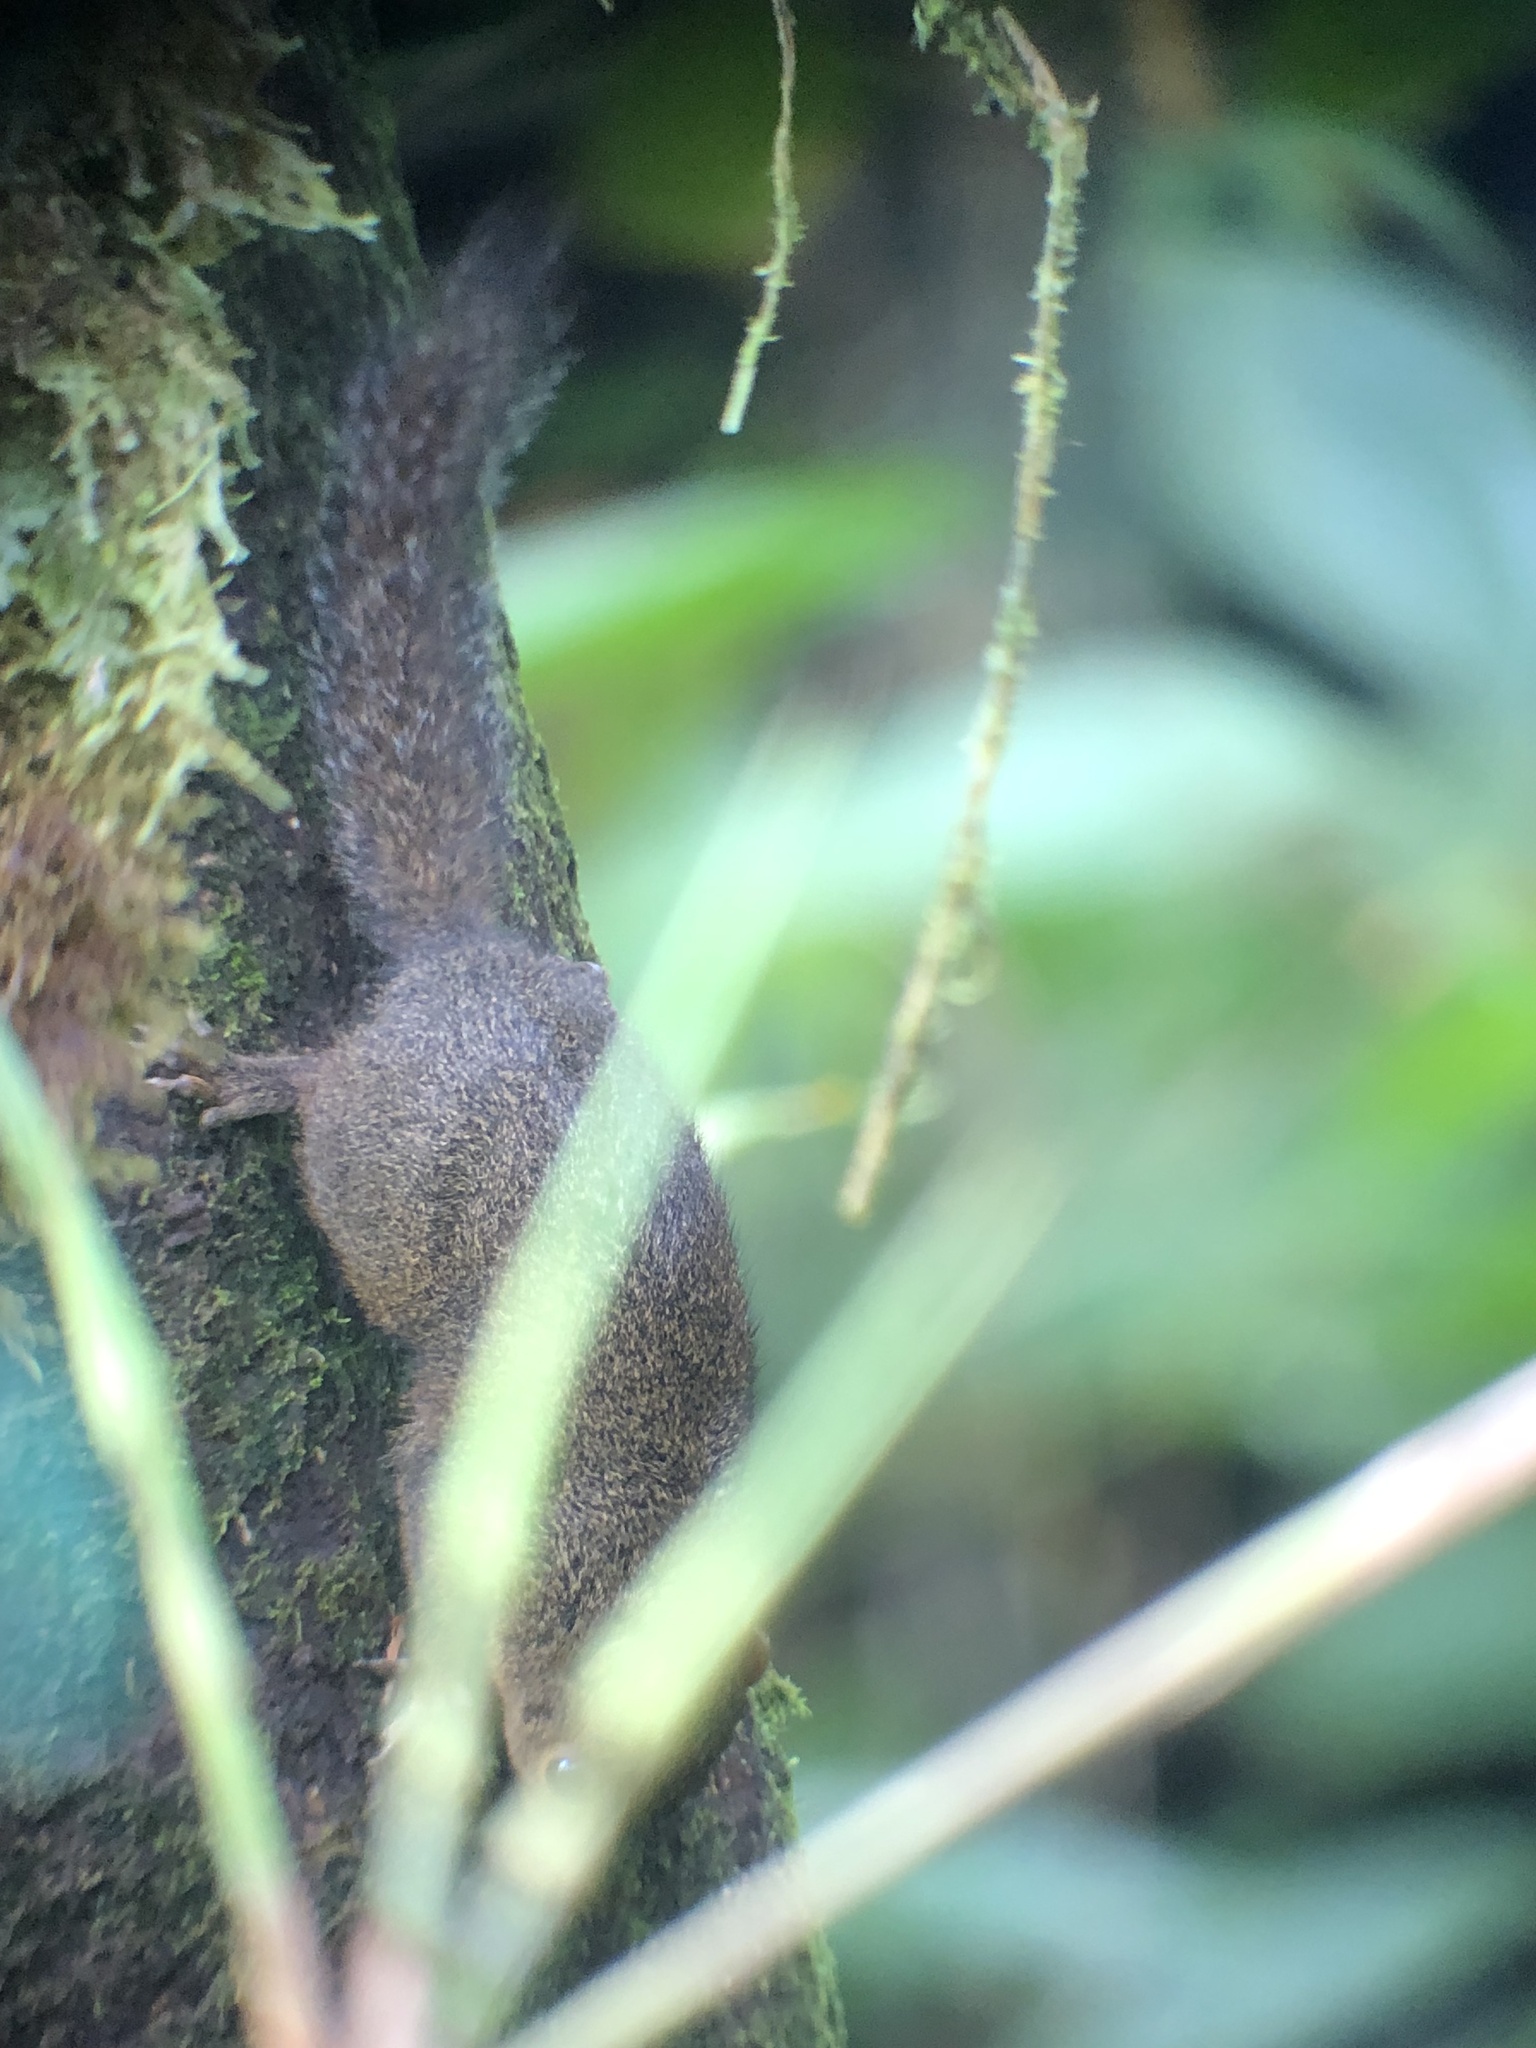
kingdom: Animalia
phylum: Chordata
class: Mammalia
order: Rodentia
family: Sciuridae
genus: Microsciurus
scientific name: Microsciurus alfari
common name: Central american dwarf squirrel
